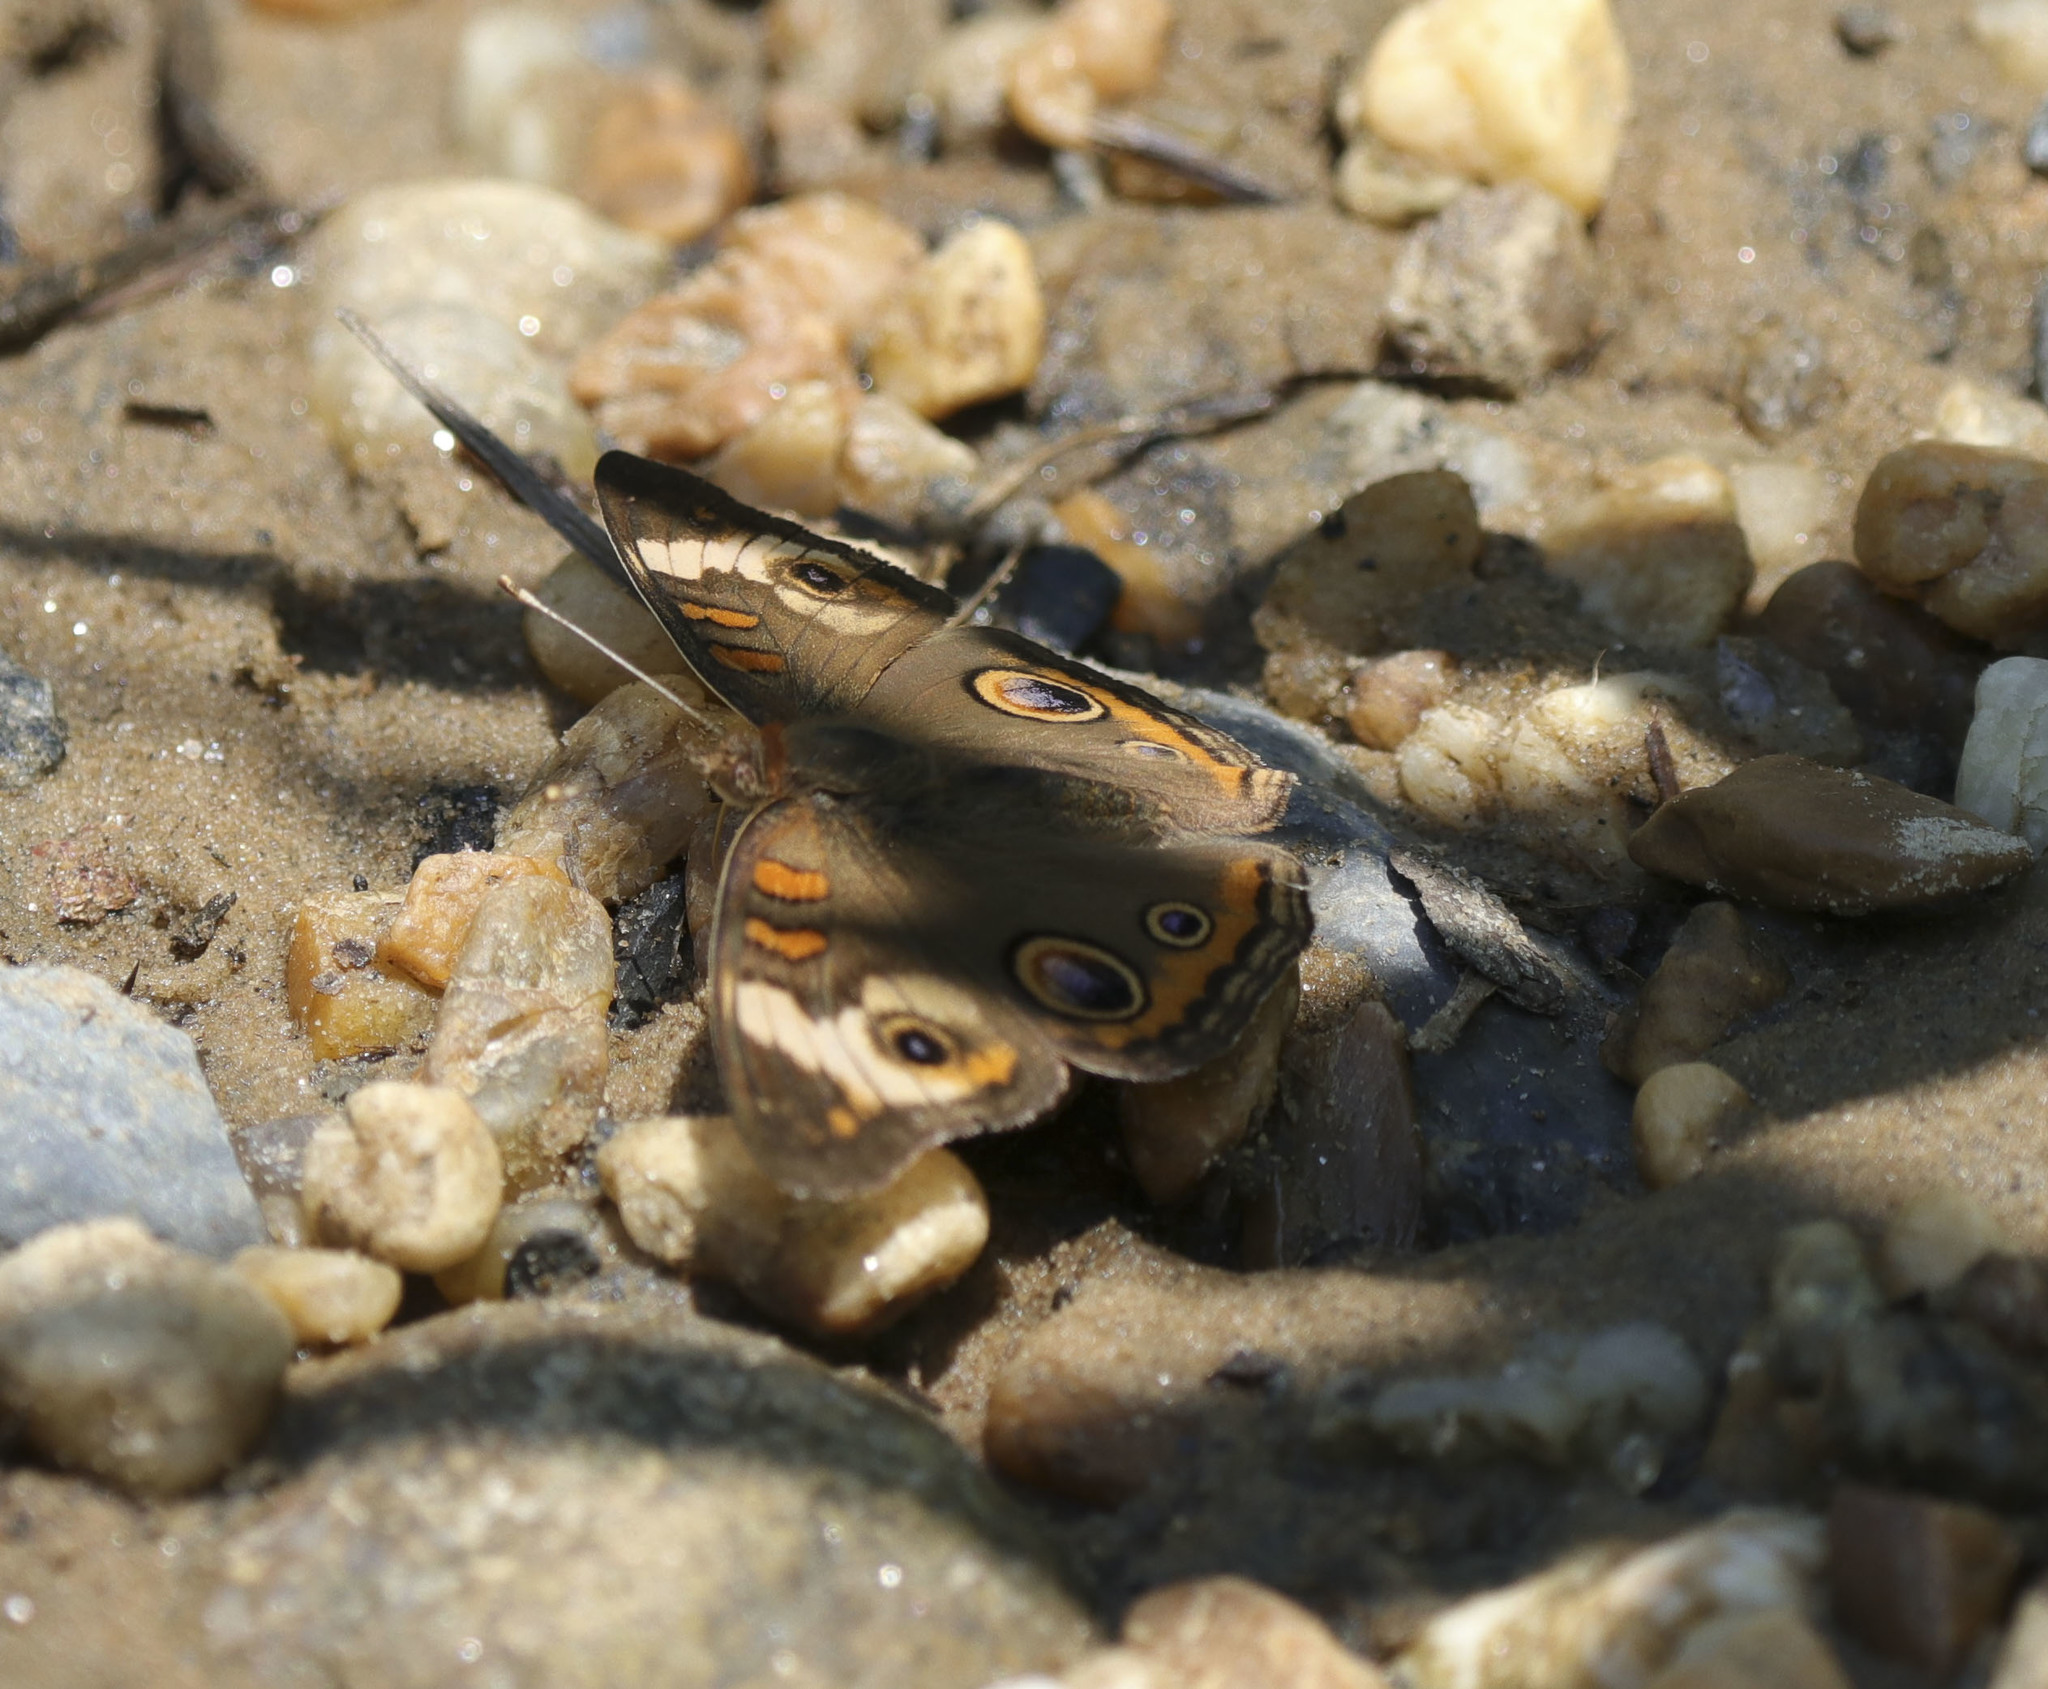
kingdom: Animalia
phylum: Arthropoda
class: Insecta
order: Lepidoptera
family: Nymphalidae
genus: Junonia
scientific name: Junonia coenia
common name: Common buckeye
